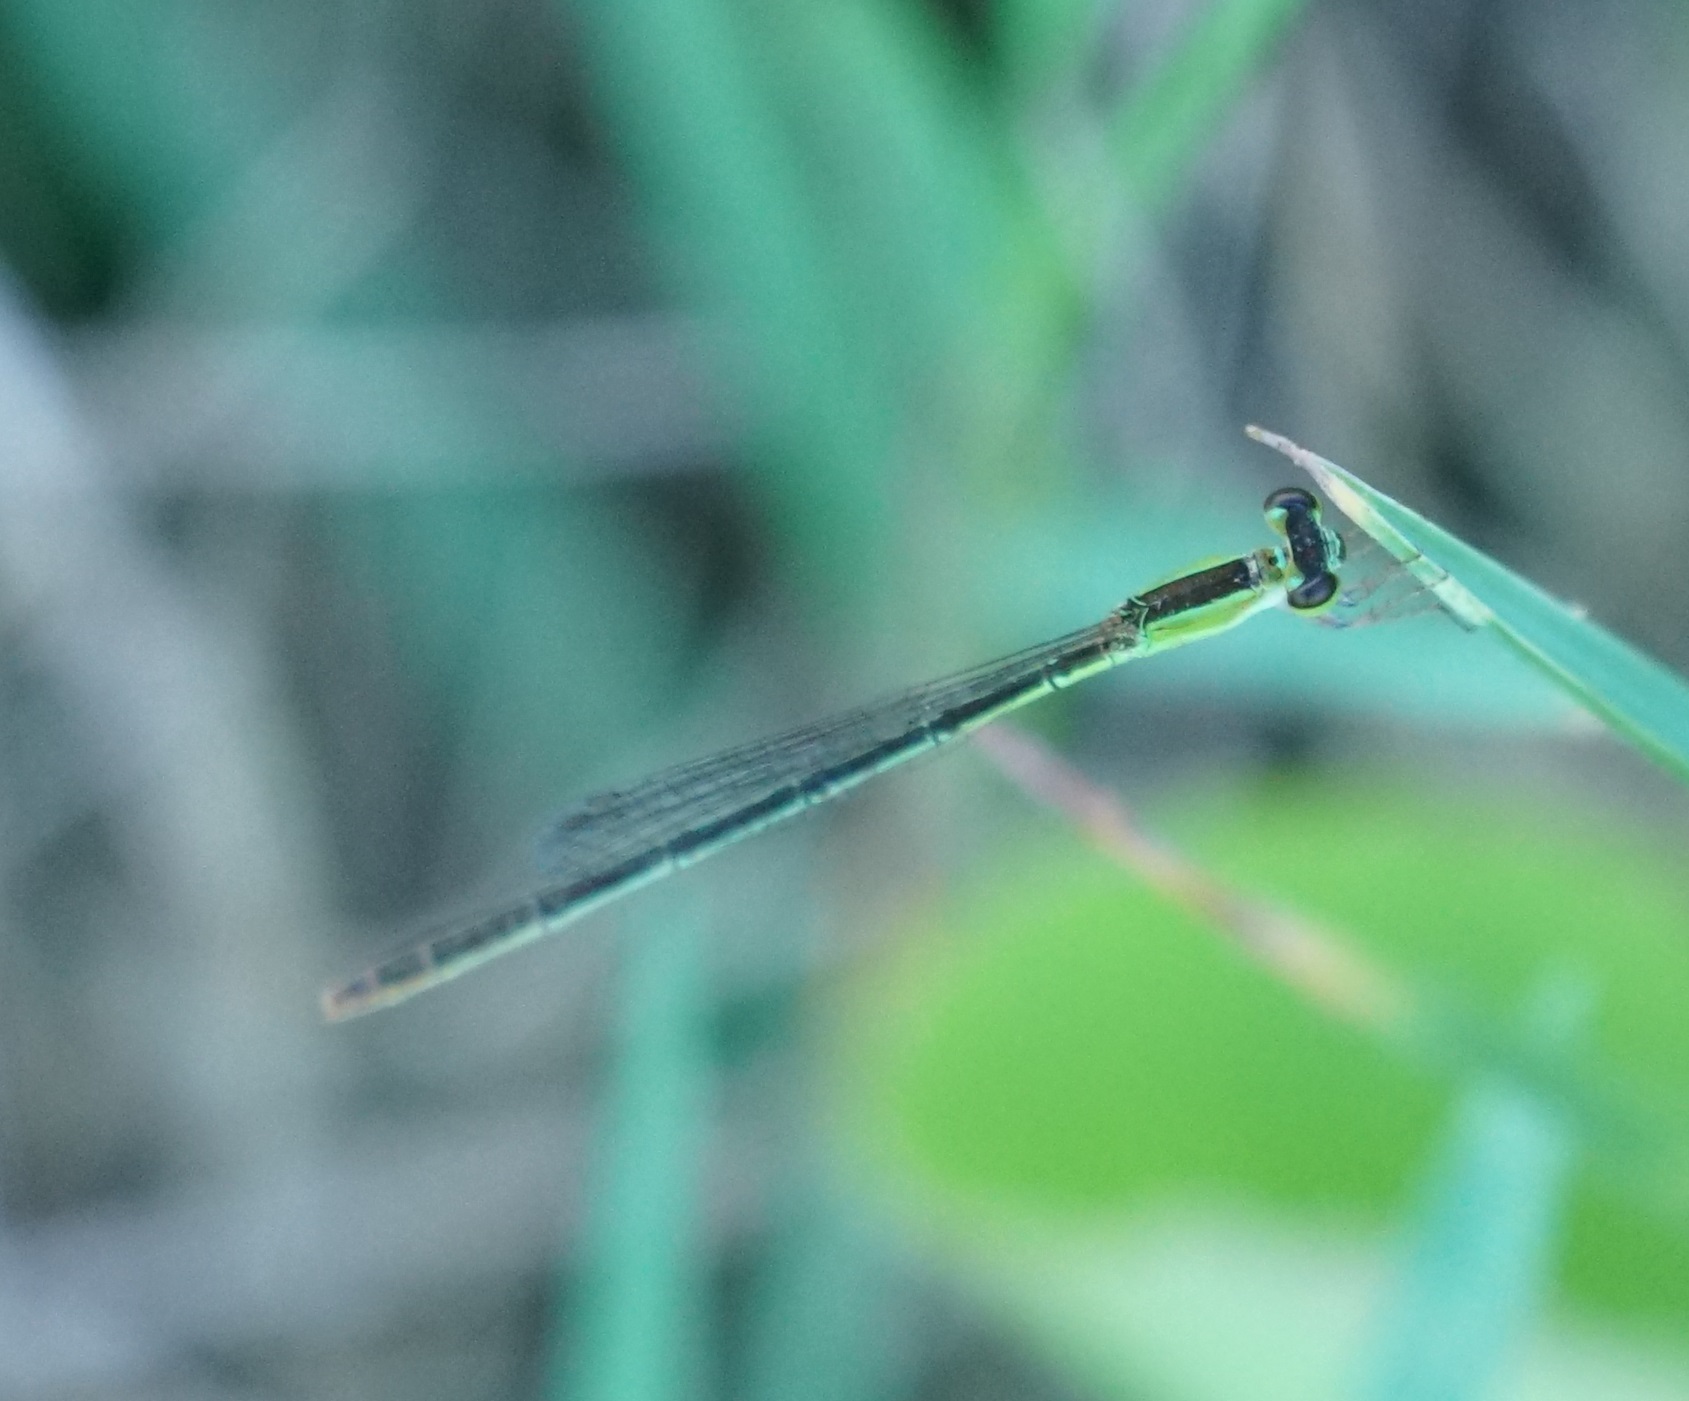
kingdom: Animalia
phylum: Arthropoda
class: Insecta
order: Odonata
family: Coenagrionidae
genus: Agriocnemis
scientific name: Agriocnemis pygmaea
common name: Pygmy wisp
